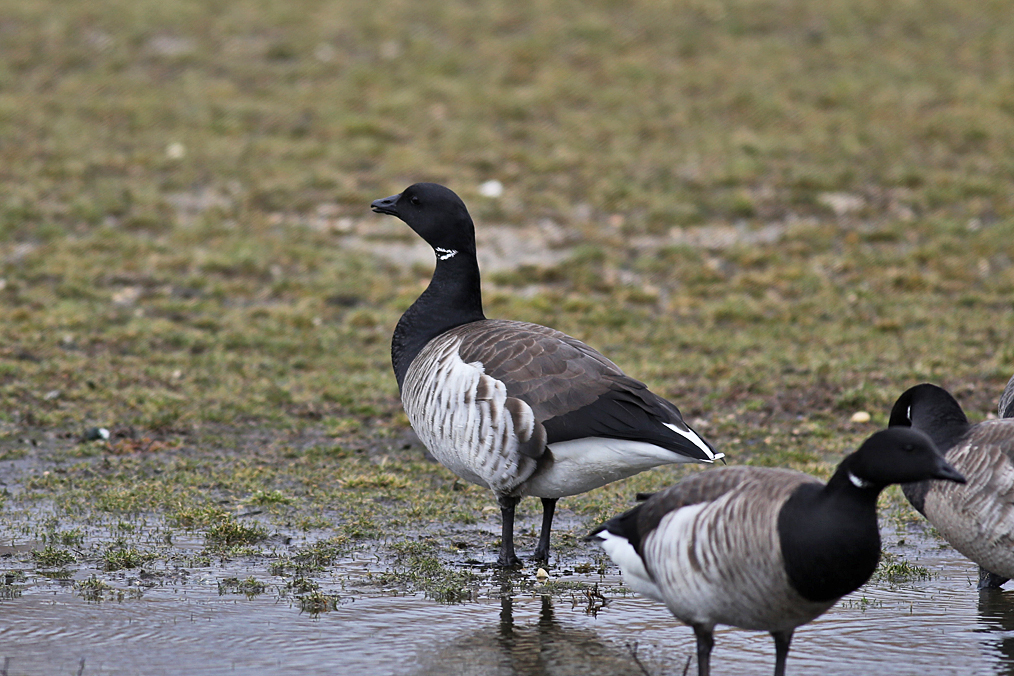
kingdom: Animalia
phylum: Chordata
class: Aves
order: Anseriformes
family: Anatidae
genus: Branta
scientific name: Branta bernicla
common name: Brant goose
